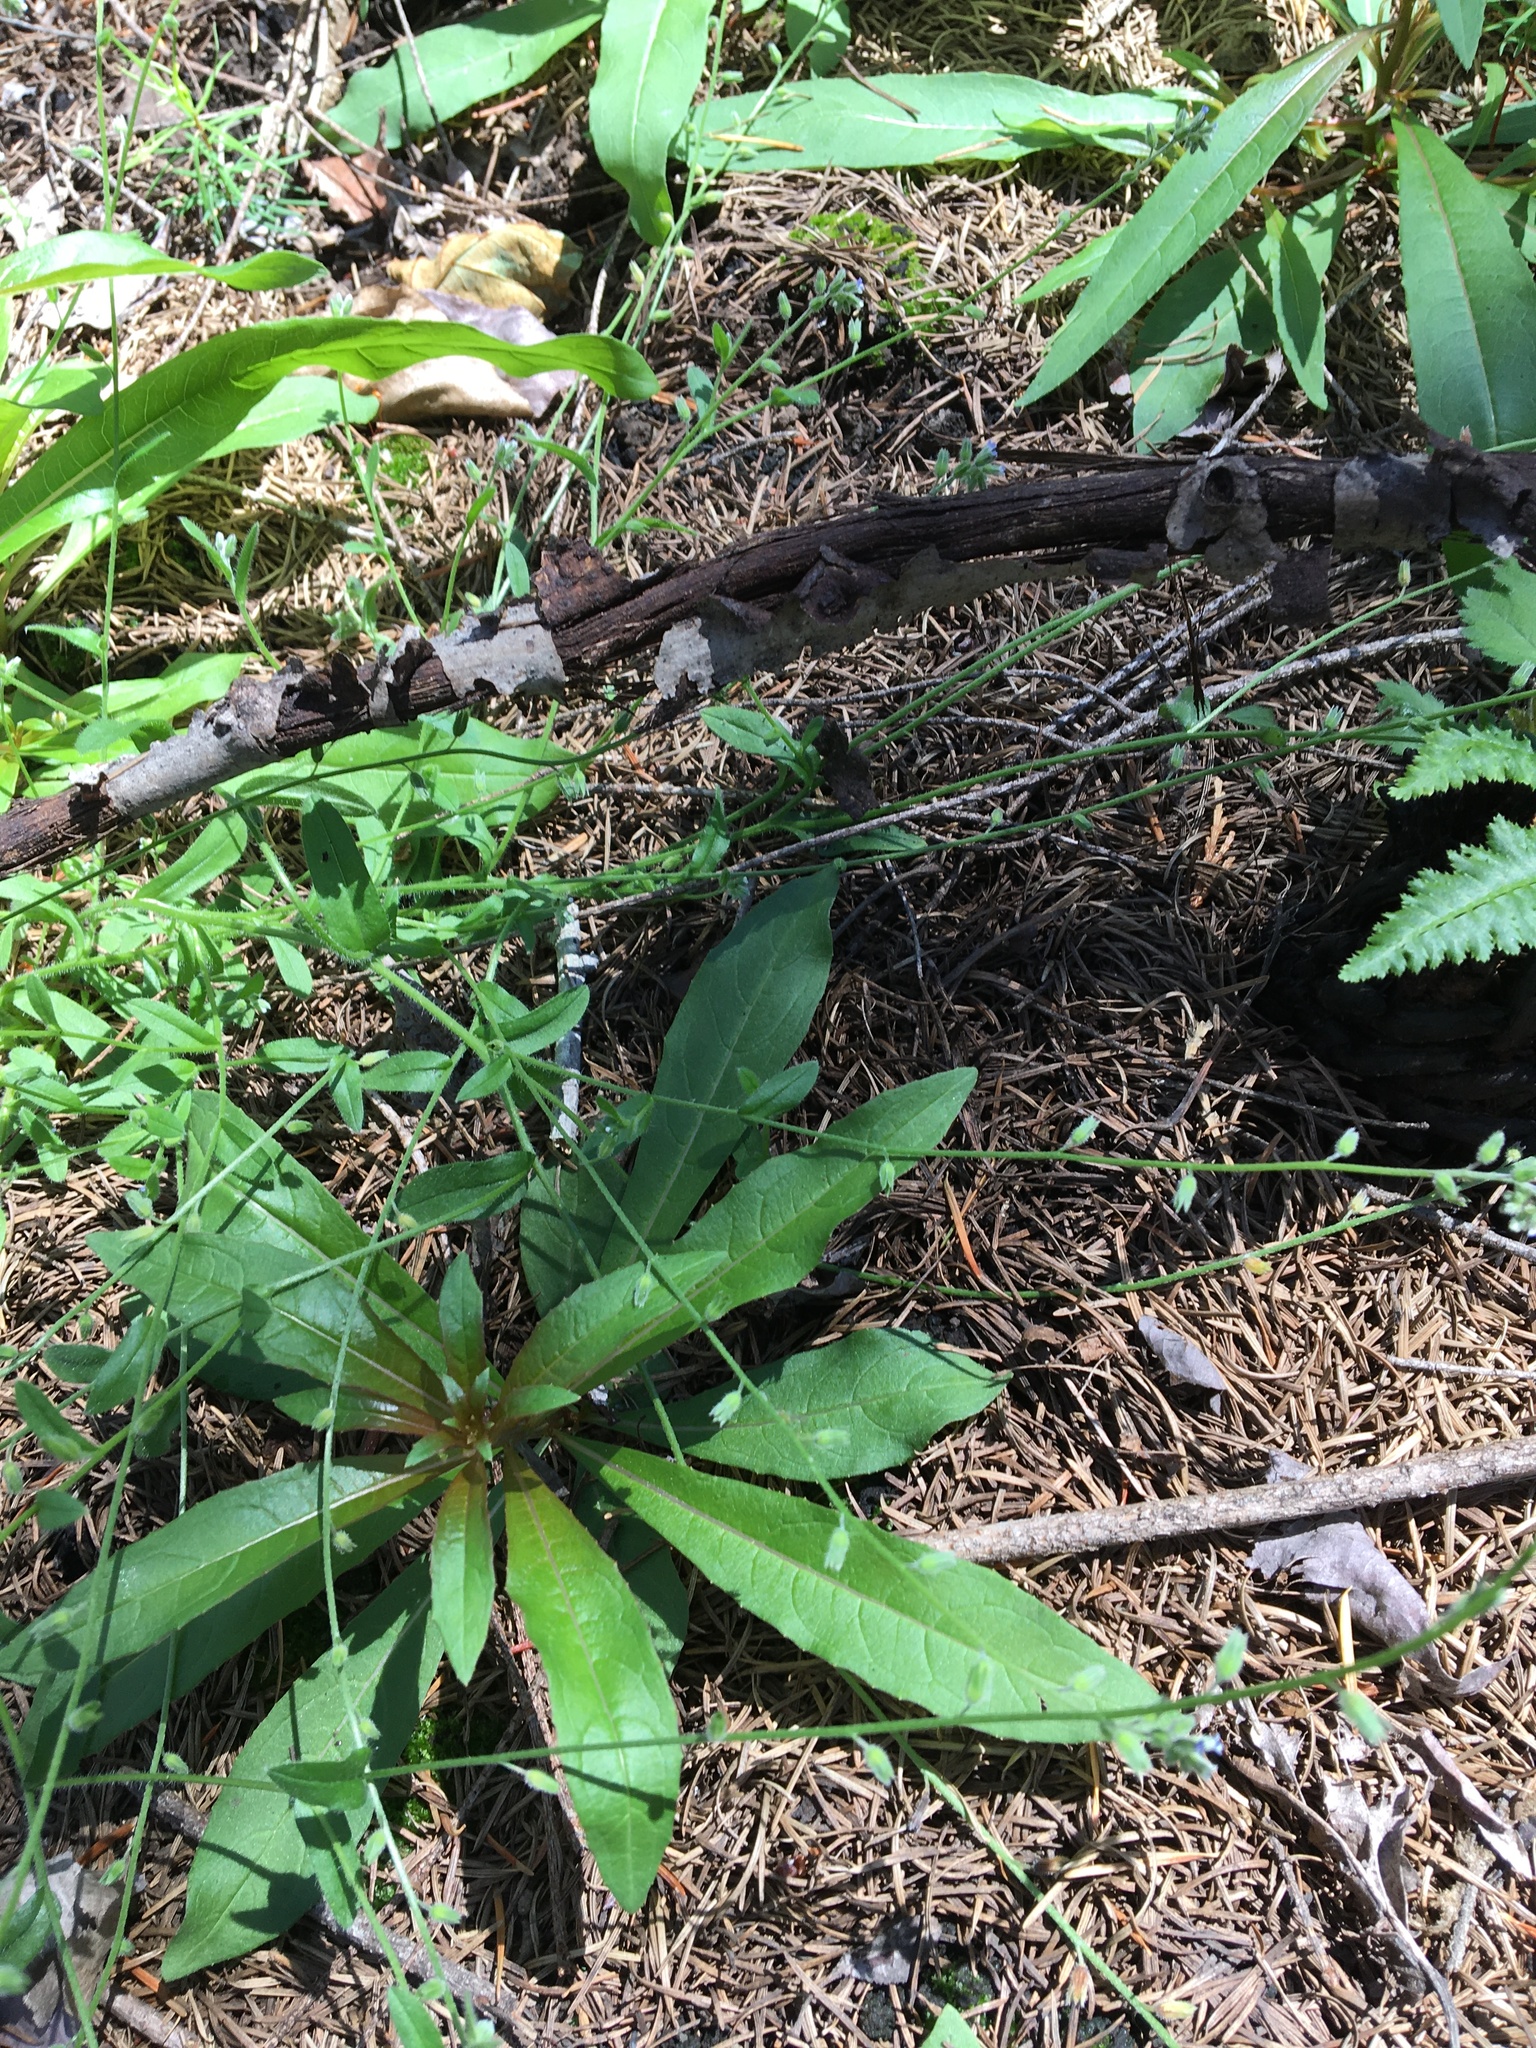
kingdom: Plantae
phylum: Tracheophyta
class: Magnoliopsida
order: Boraginales
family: Boraginaceae
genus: Myosotis
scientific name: Myosotis discolor
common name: Changing forget-me-not
